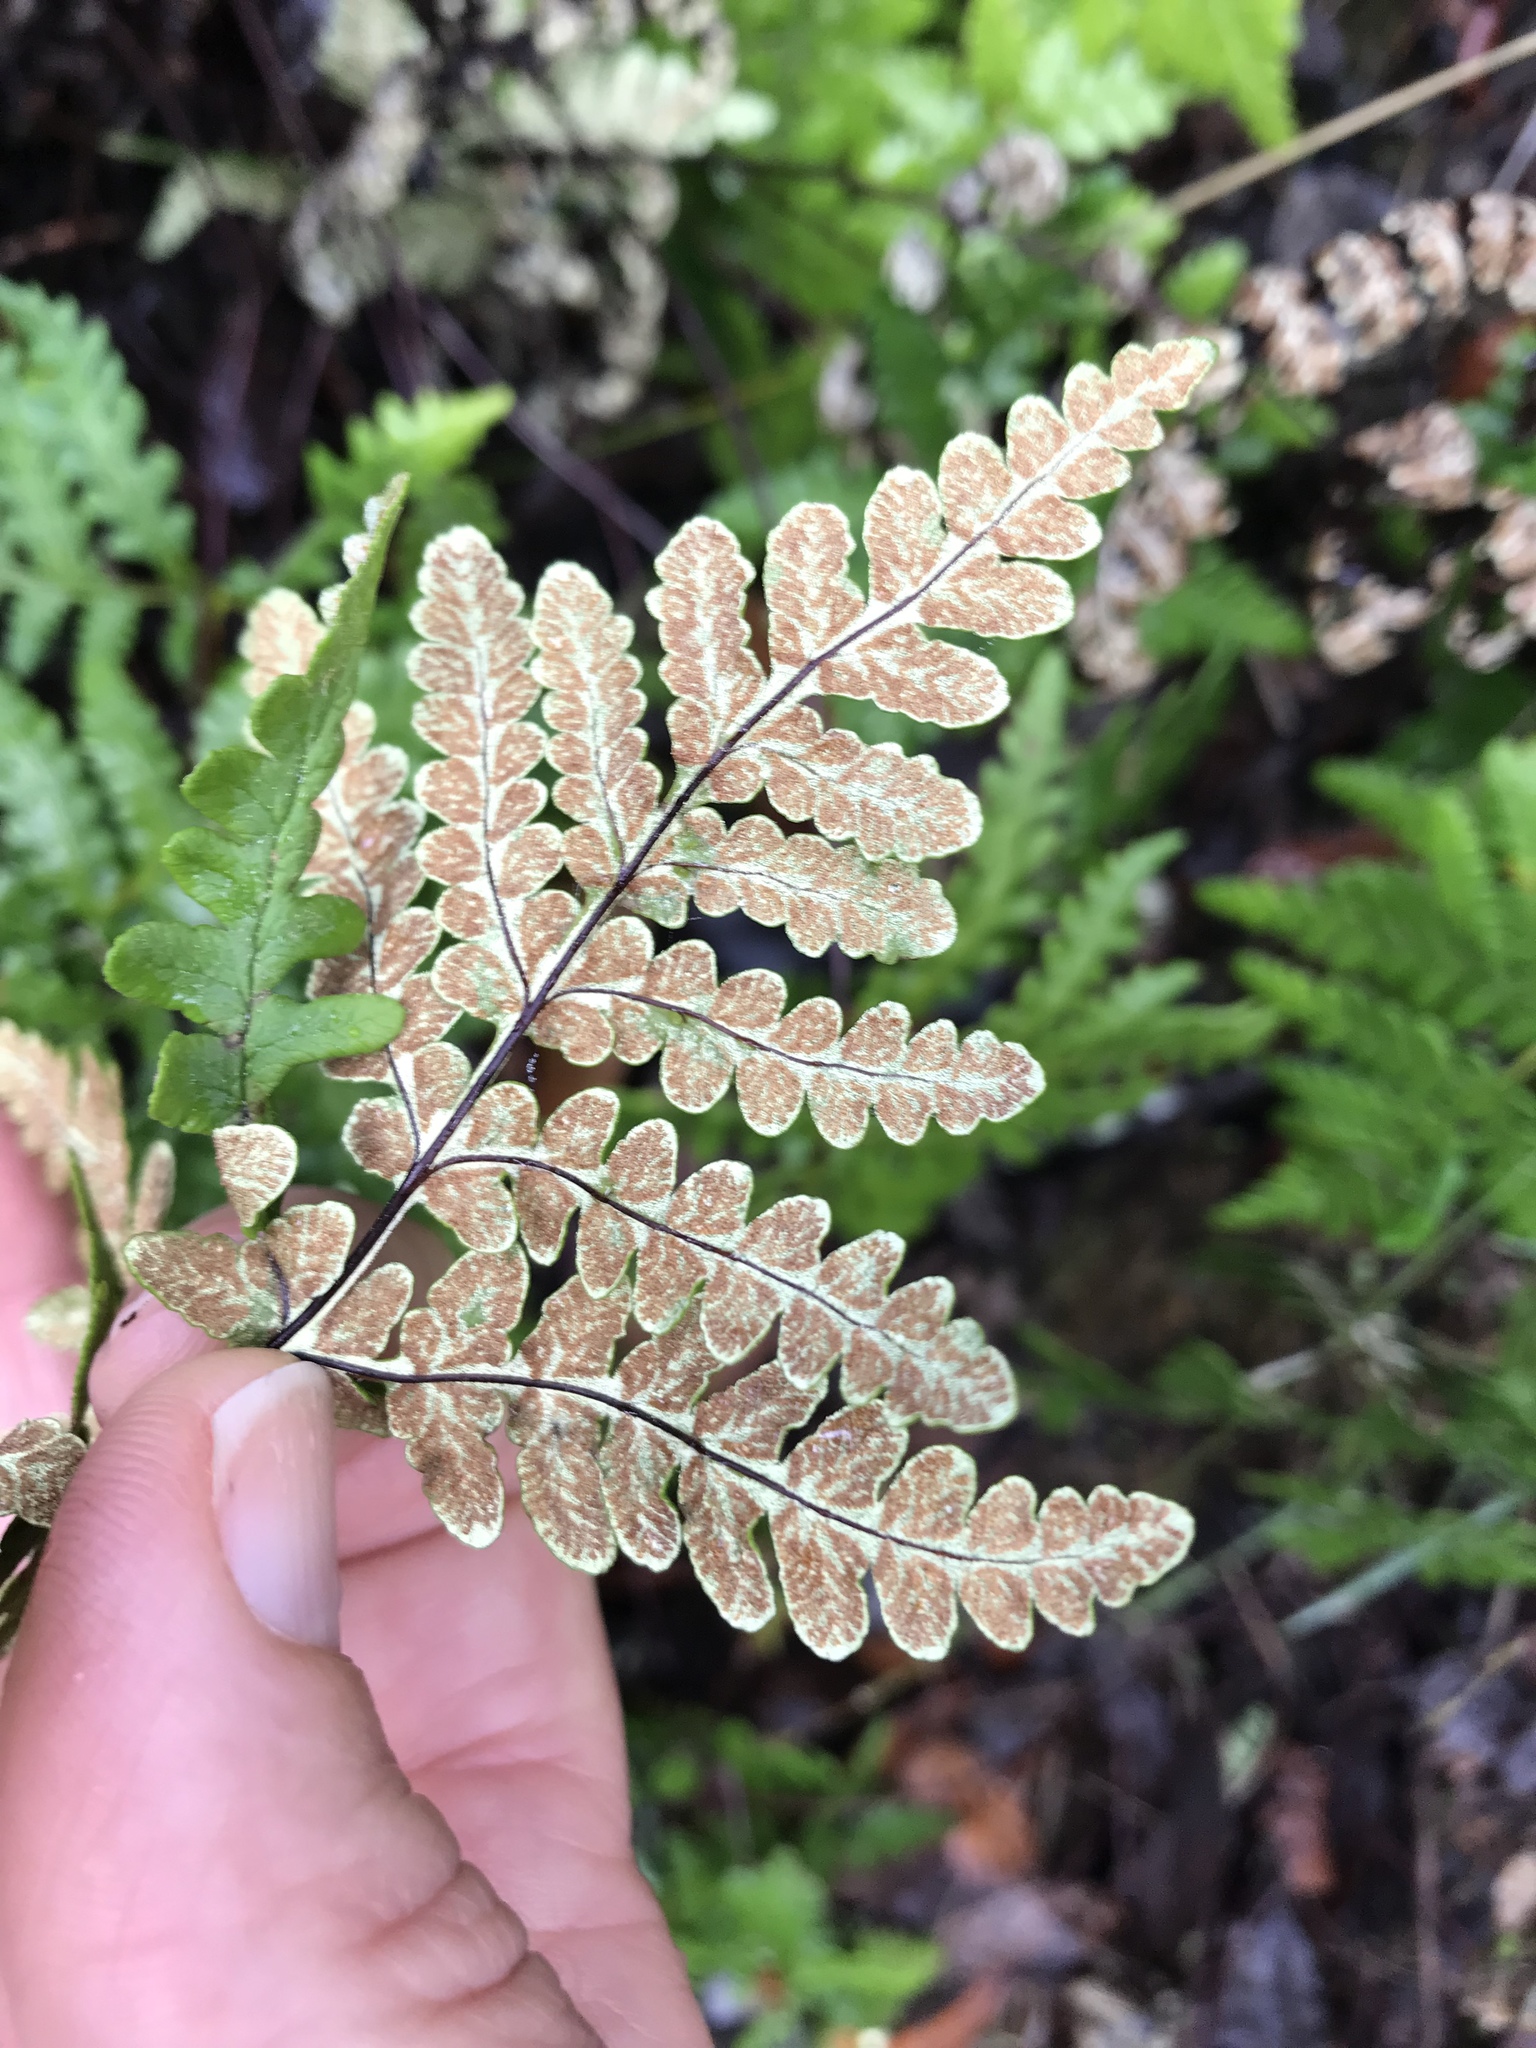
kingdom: Plantae
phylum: Tracheophyta
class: Polypodiopsida
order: Polypodiales
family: Pteridaceae
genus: Pentagramma
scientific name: Pentagramma triangularis
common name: Gold fern
